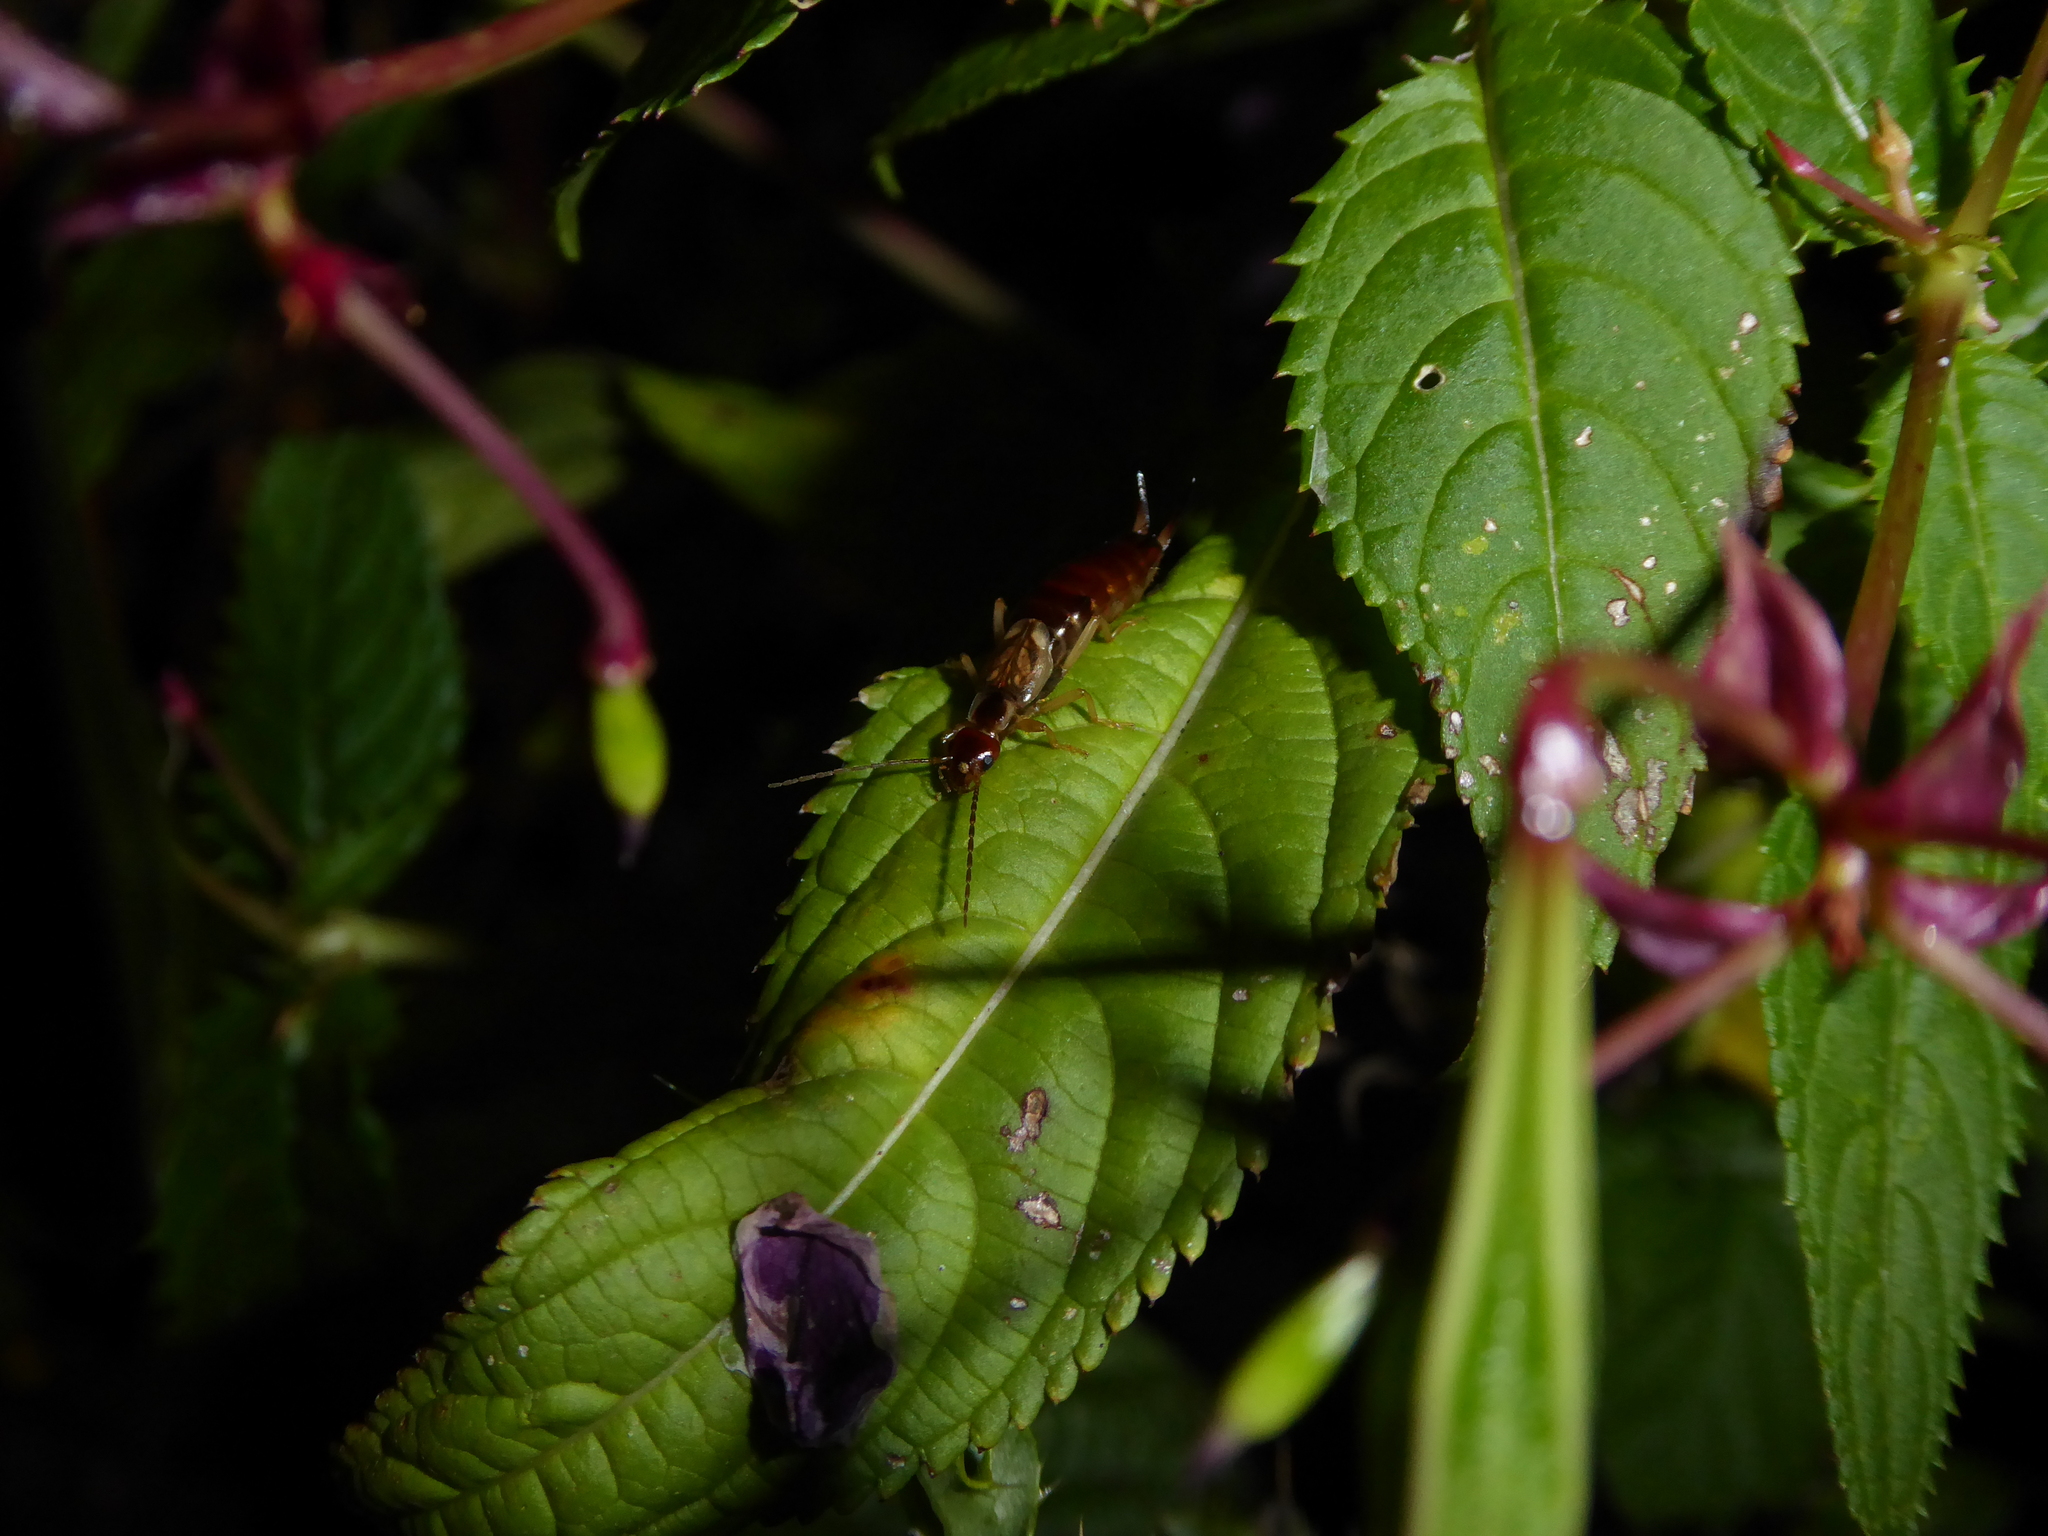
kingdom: Animalia
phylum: Arthropoda
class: Insecta
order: Dermaptera
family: Forficulidae
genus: Forficula
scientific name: Forficula
